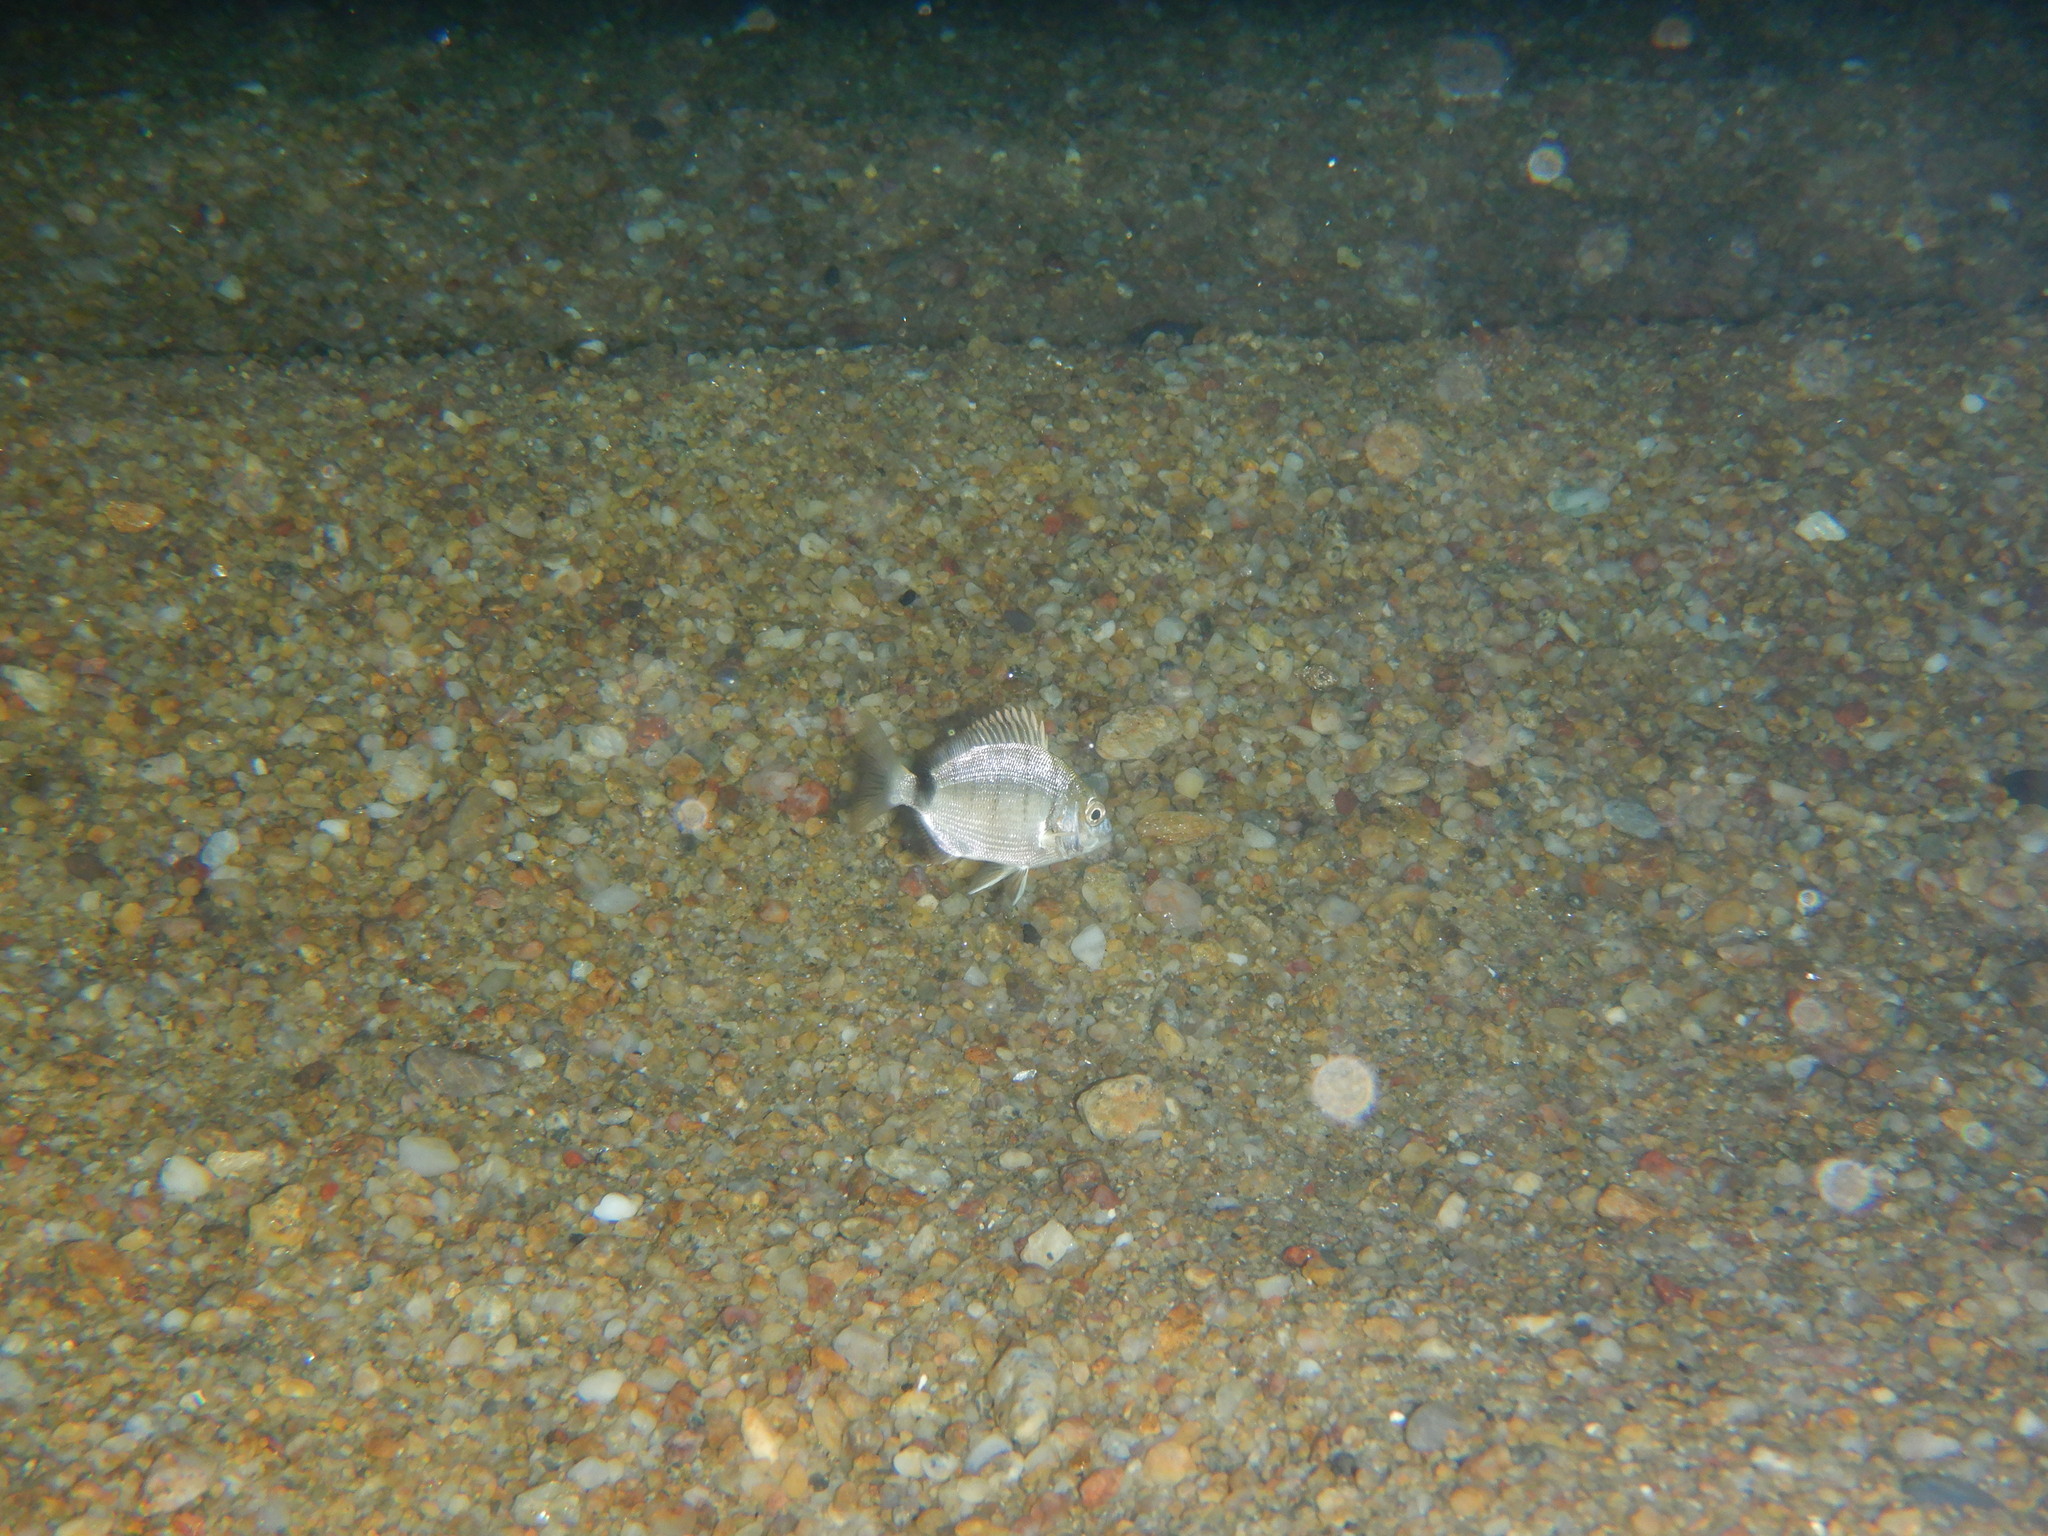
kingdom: Animalia
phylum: Chordata
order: Perciformes
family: Sparidae
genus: Diplodus
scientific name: Diplodus sargus
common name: White seabream
